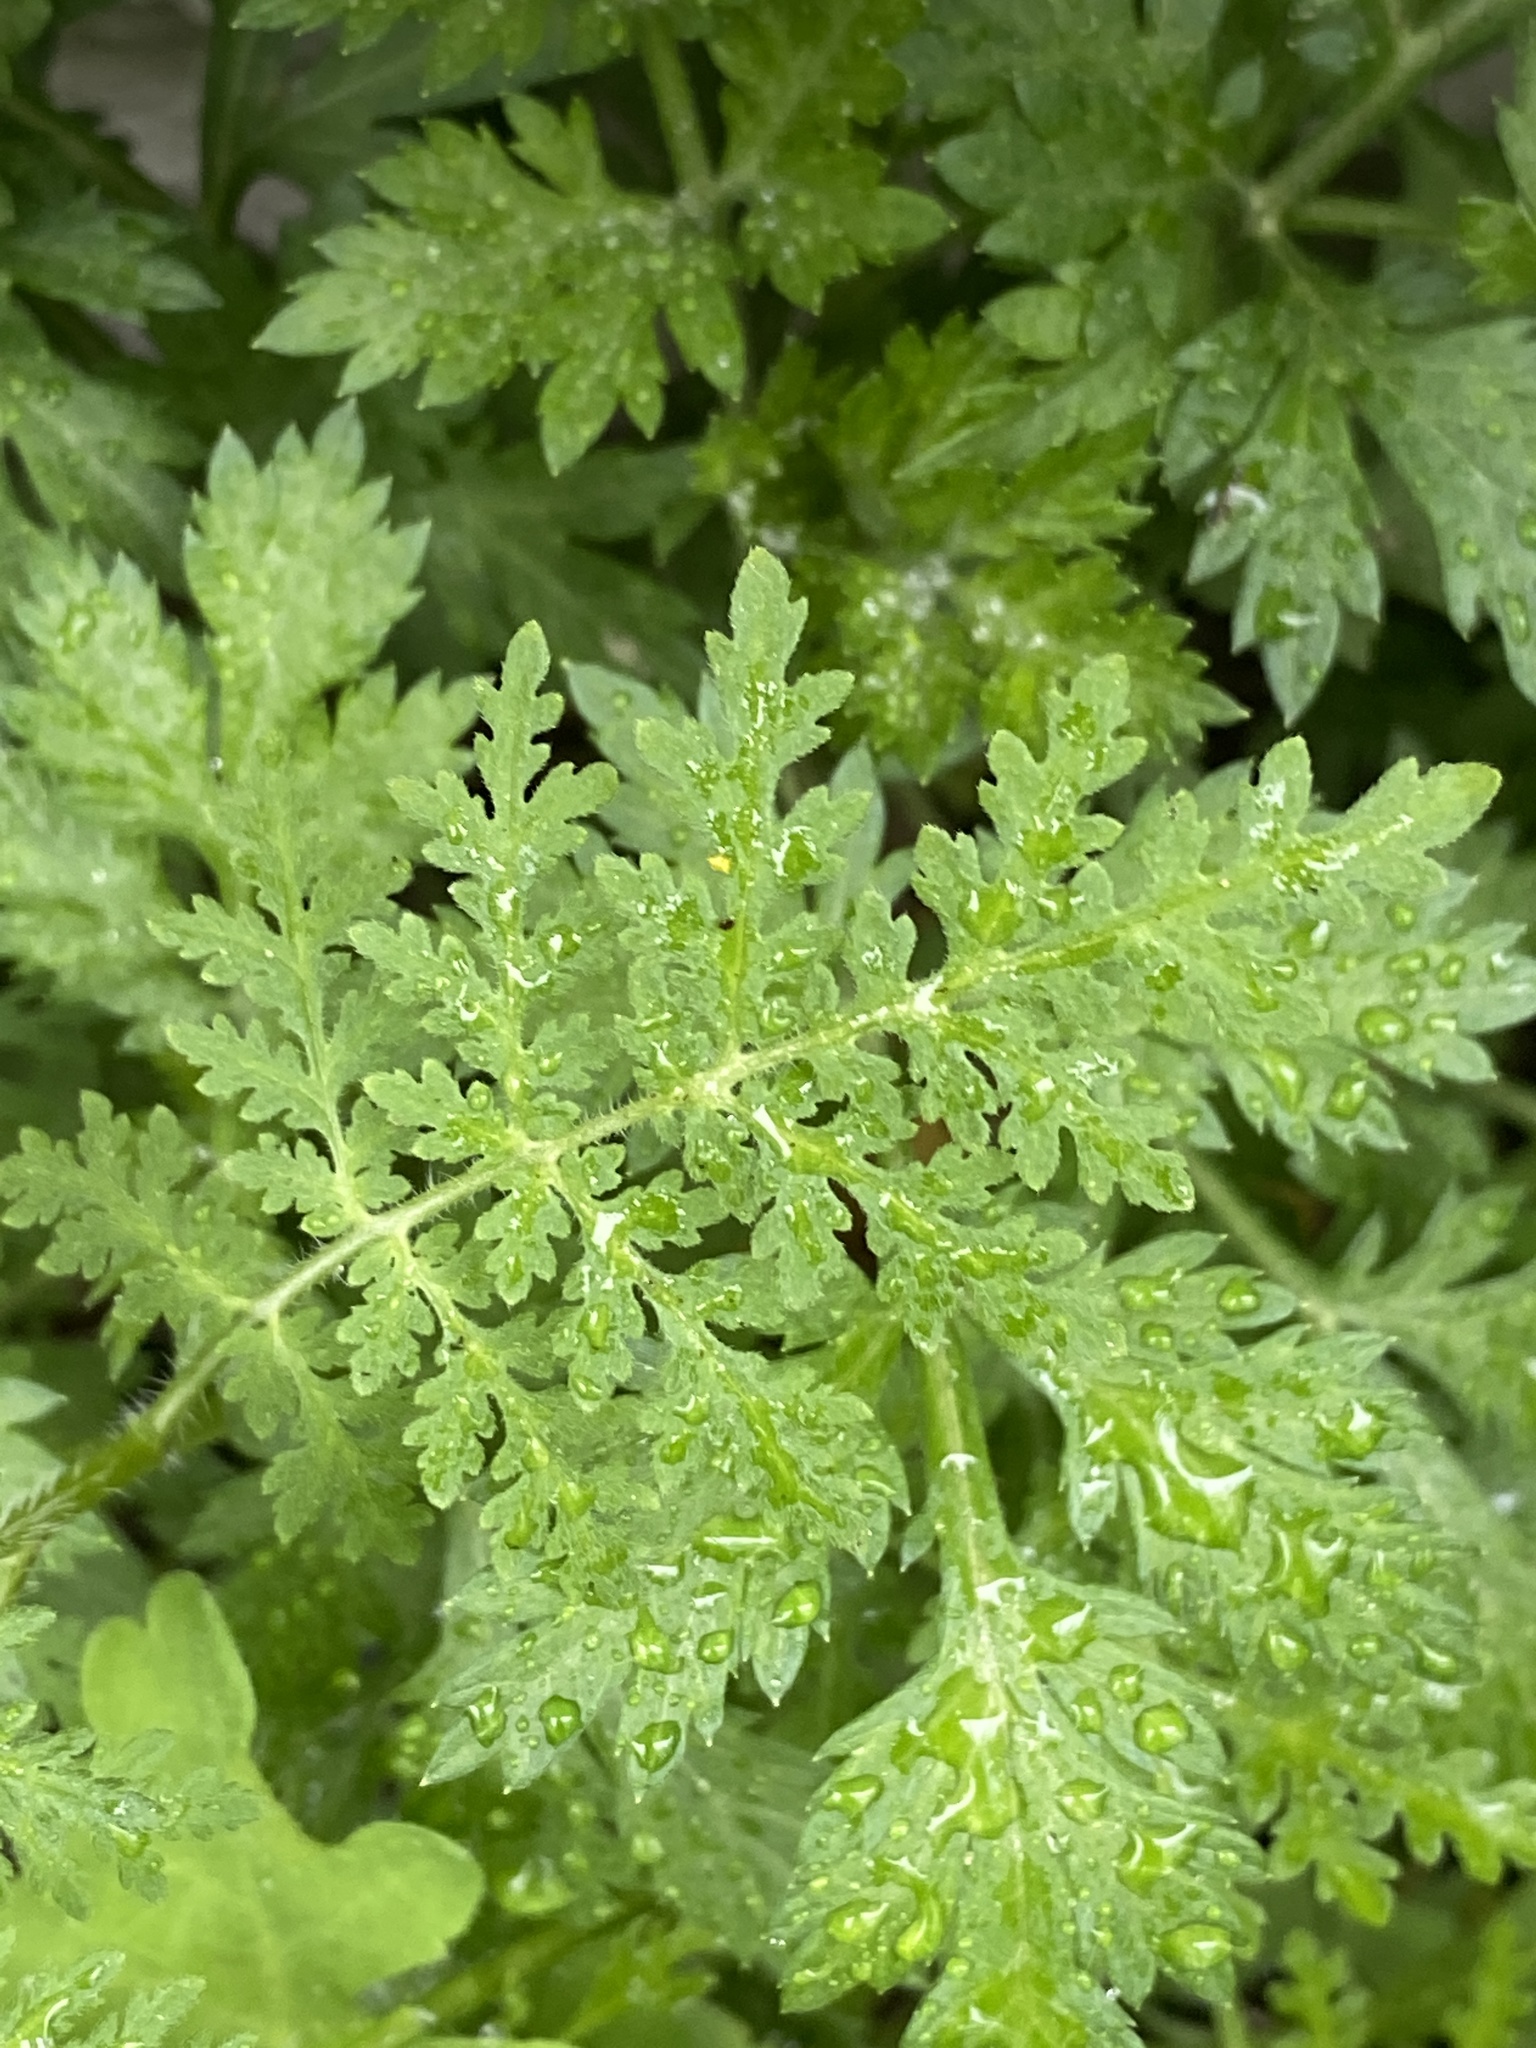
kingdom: Plantae
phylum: Tracheophyta
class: Magnoliopsida
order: Asterales
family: Asteraceae
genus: Artemisia
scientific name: Artemisia annua
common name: Sweet sagewort
